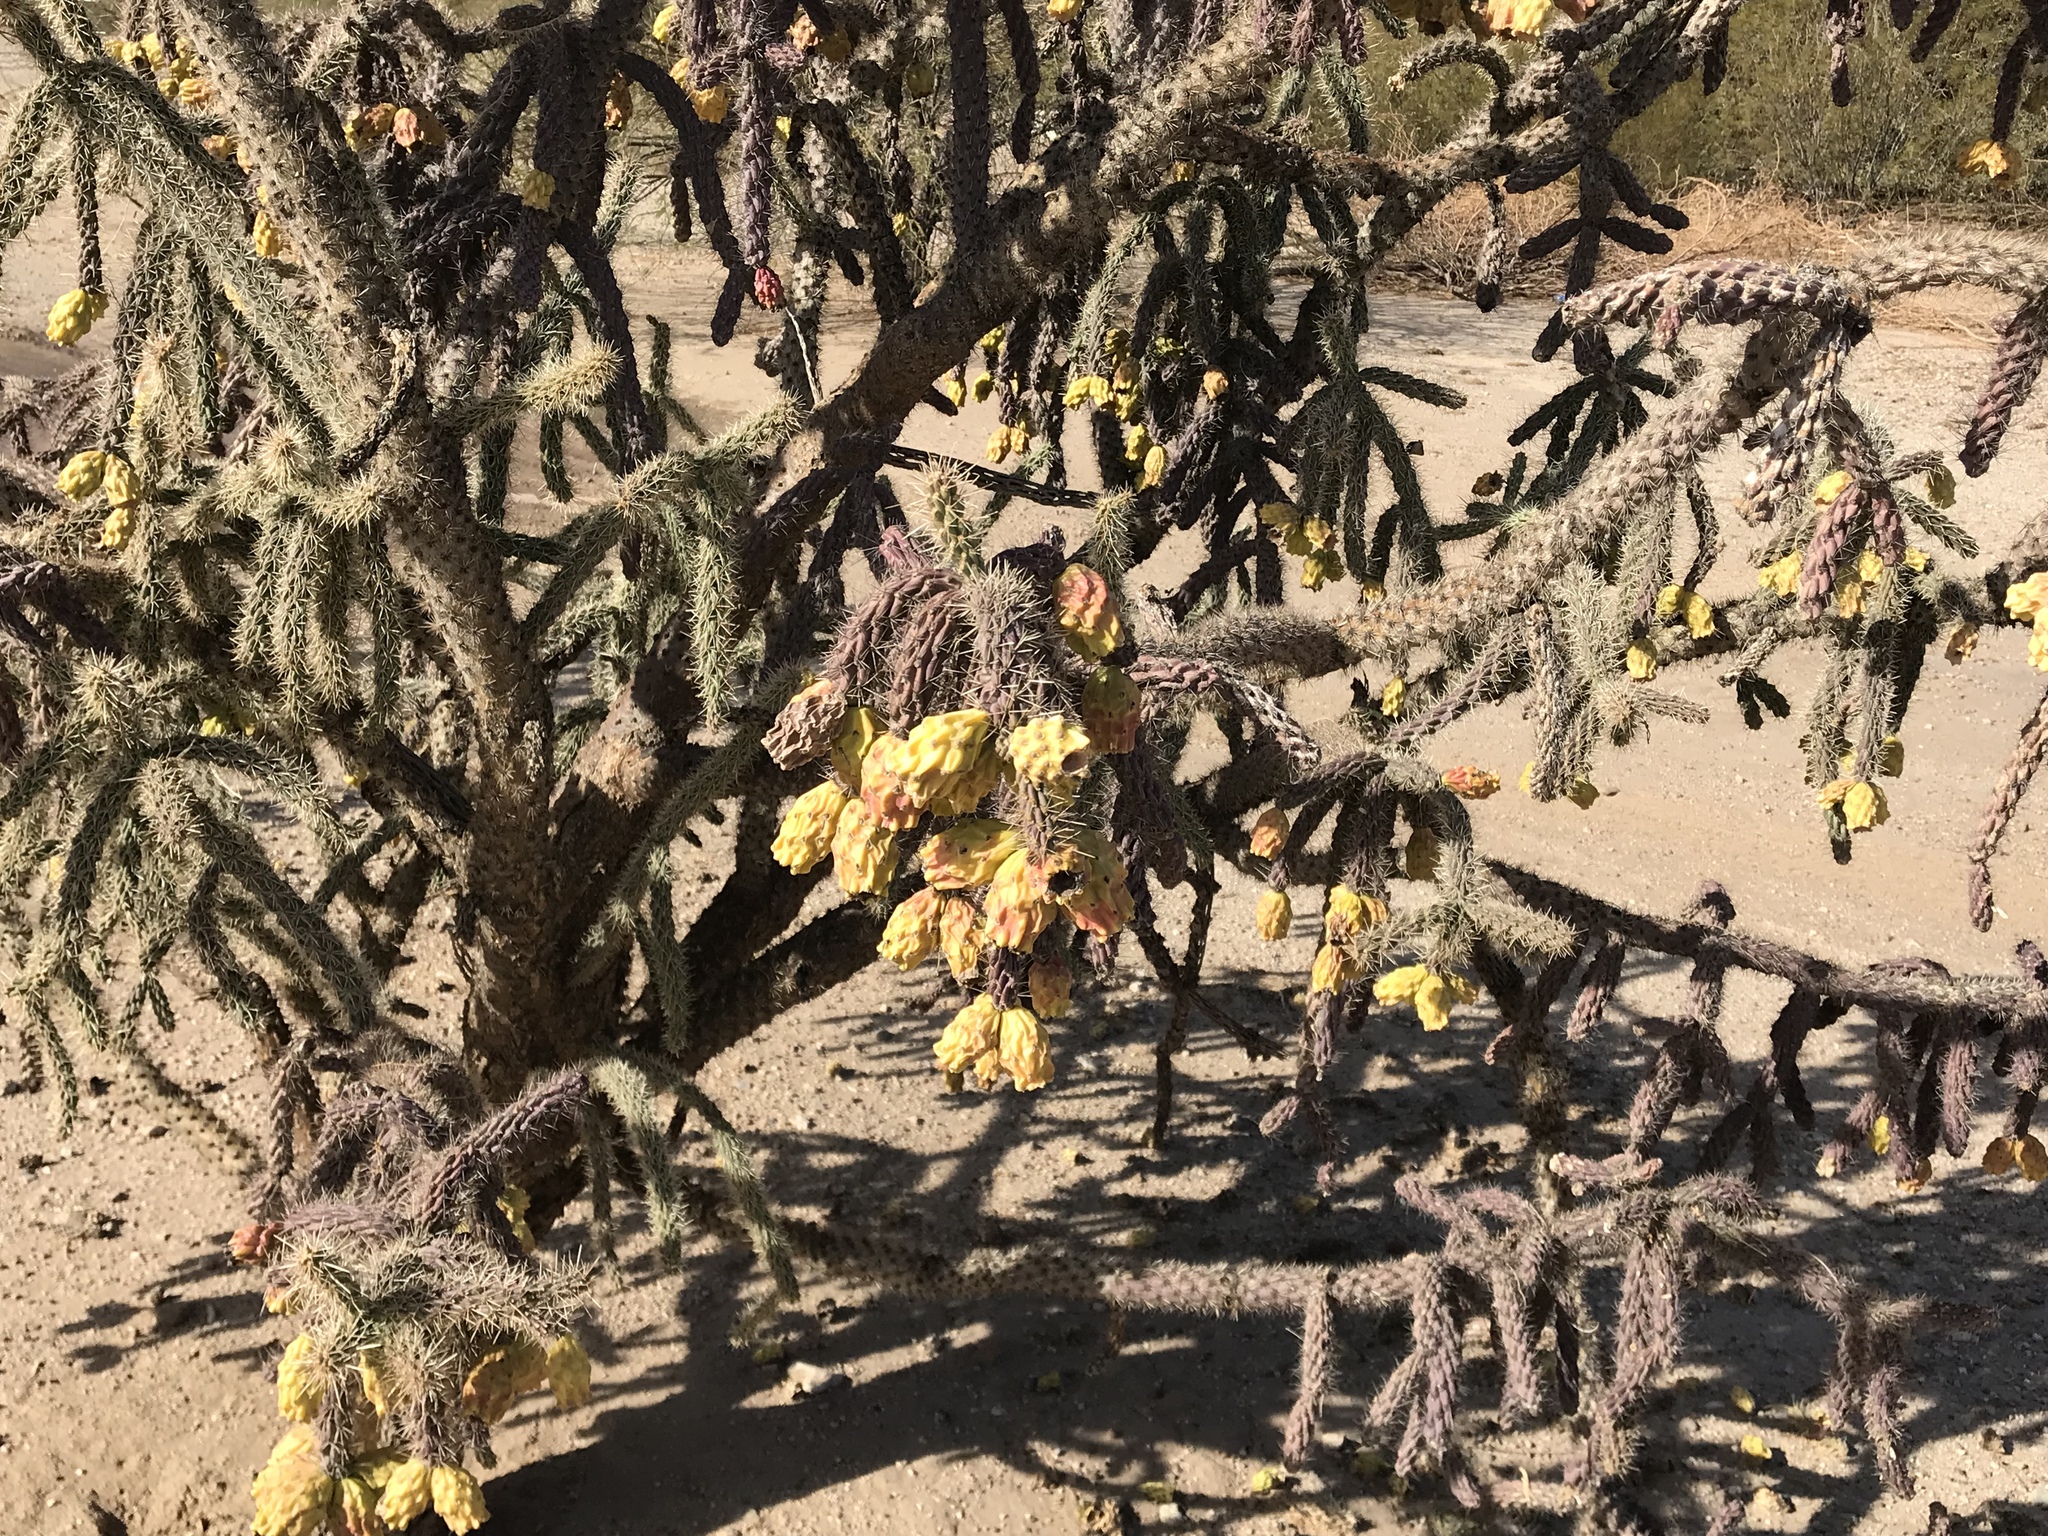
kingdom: Plantae
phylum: Tracheophyta
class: Magnoliopsida
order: Caryophyllales
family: Cactaceae
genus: Cylindropuntia
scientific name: Cylindropuntia thurberi
